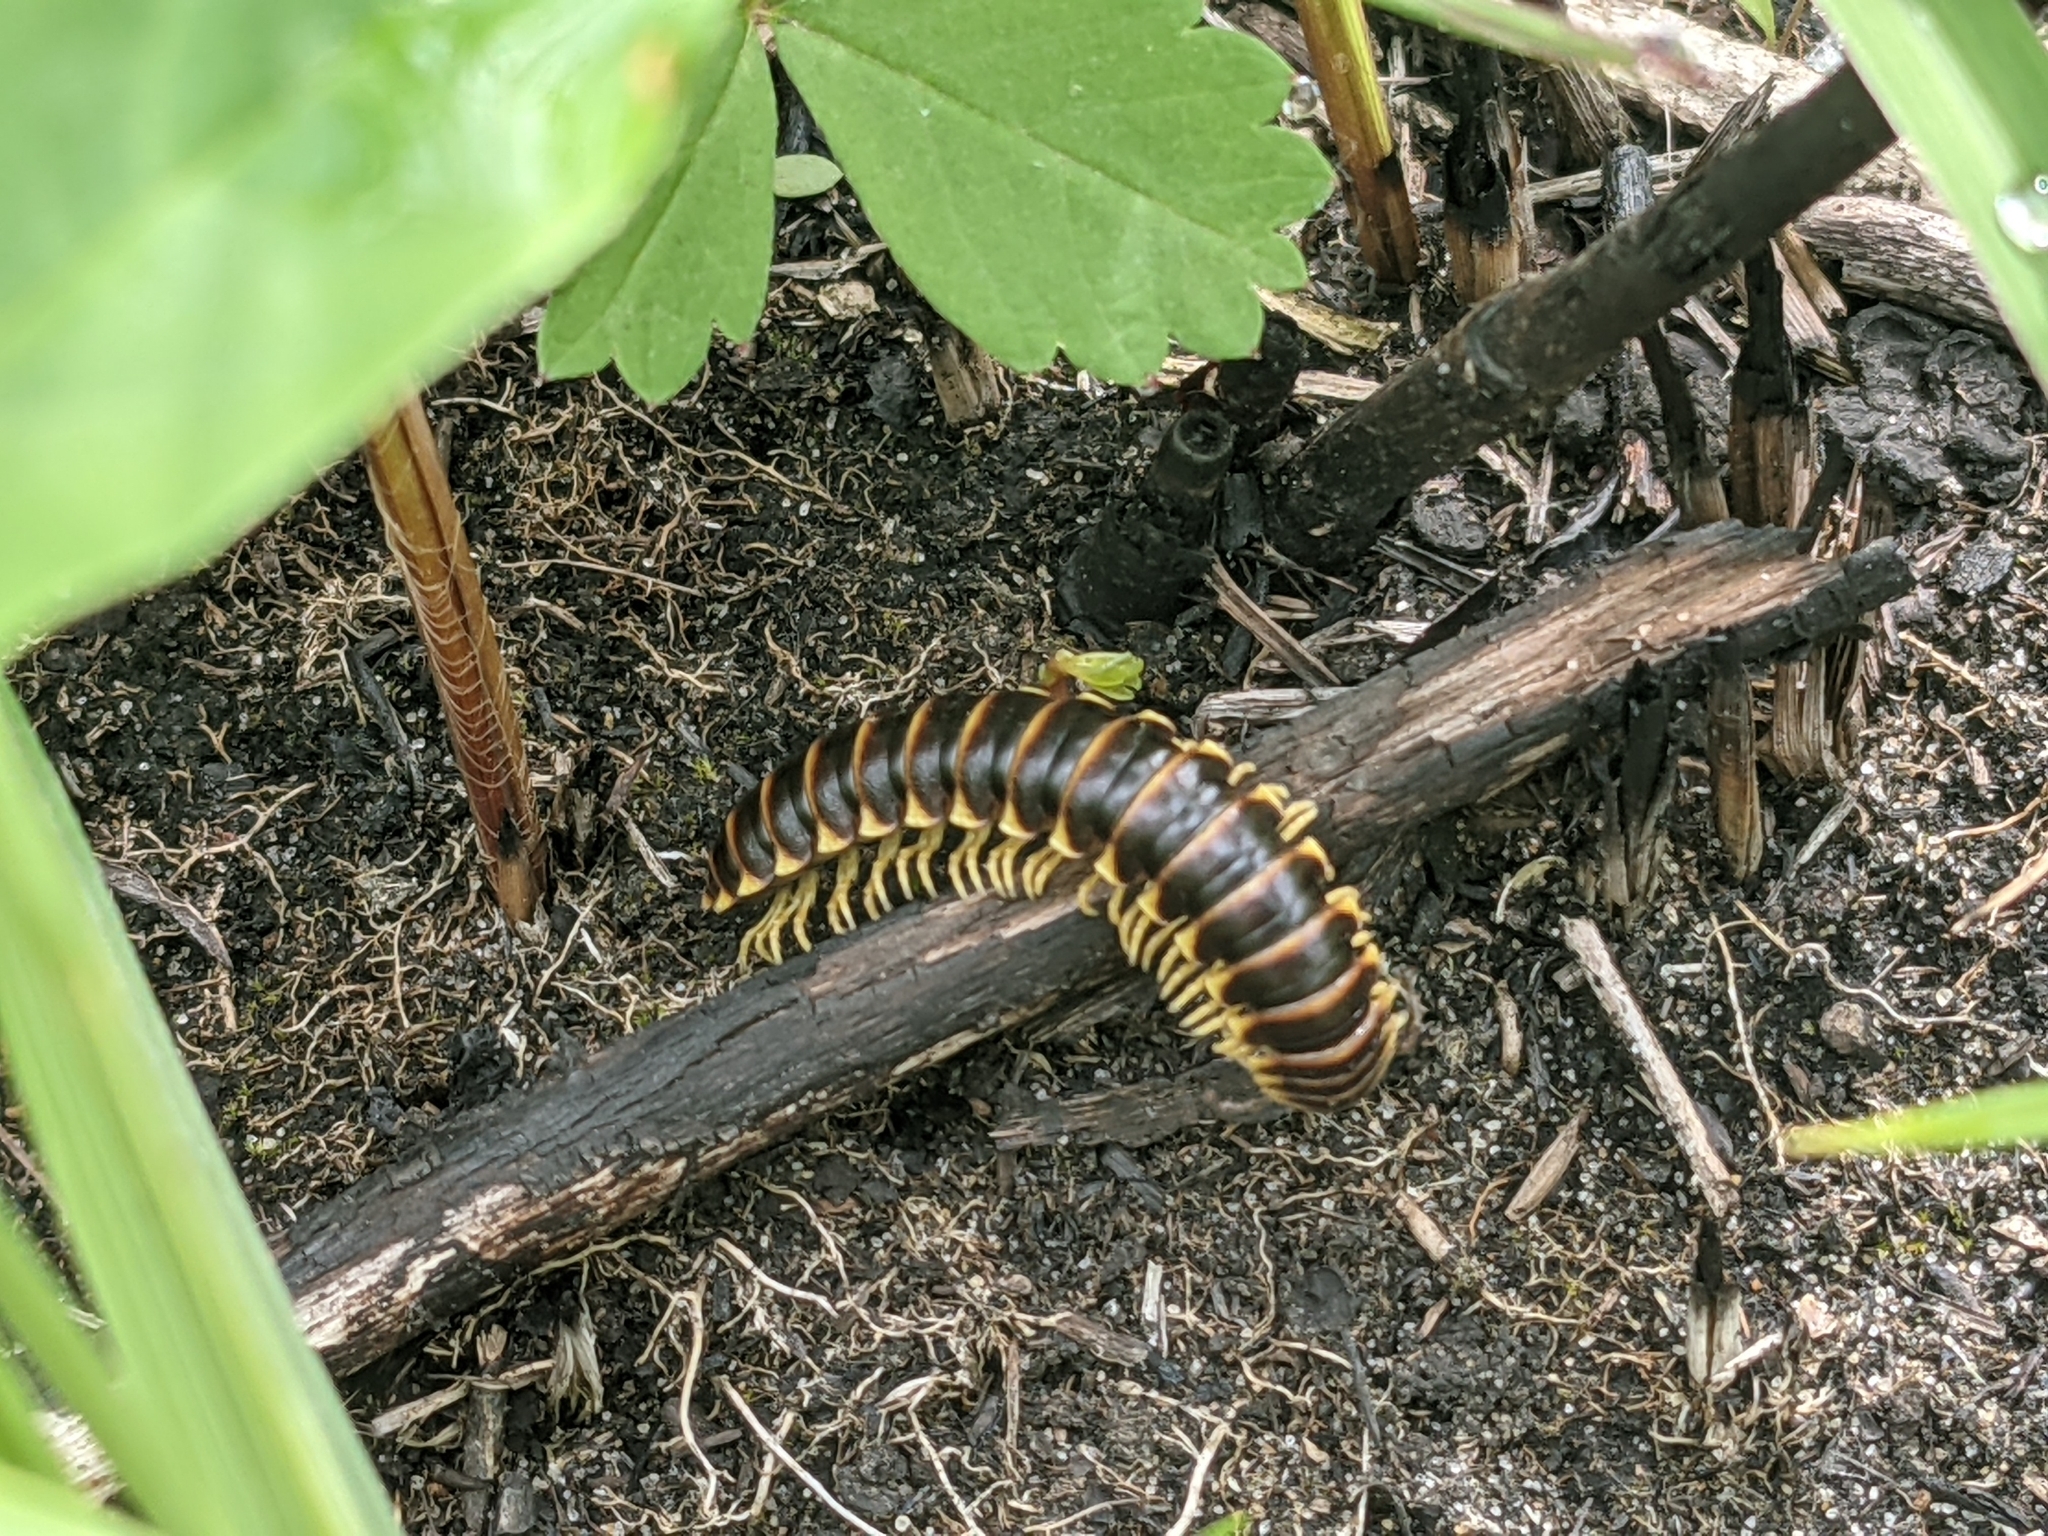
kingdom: Animalia
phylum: Arthropoda
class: Diplopoda
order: Polydesmida
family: Xystodesmidae
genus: Pleuroloma
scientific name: Pleuroloma flavipes
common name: Yellow-legged pleuroloma
